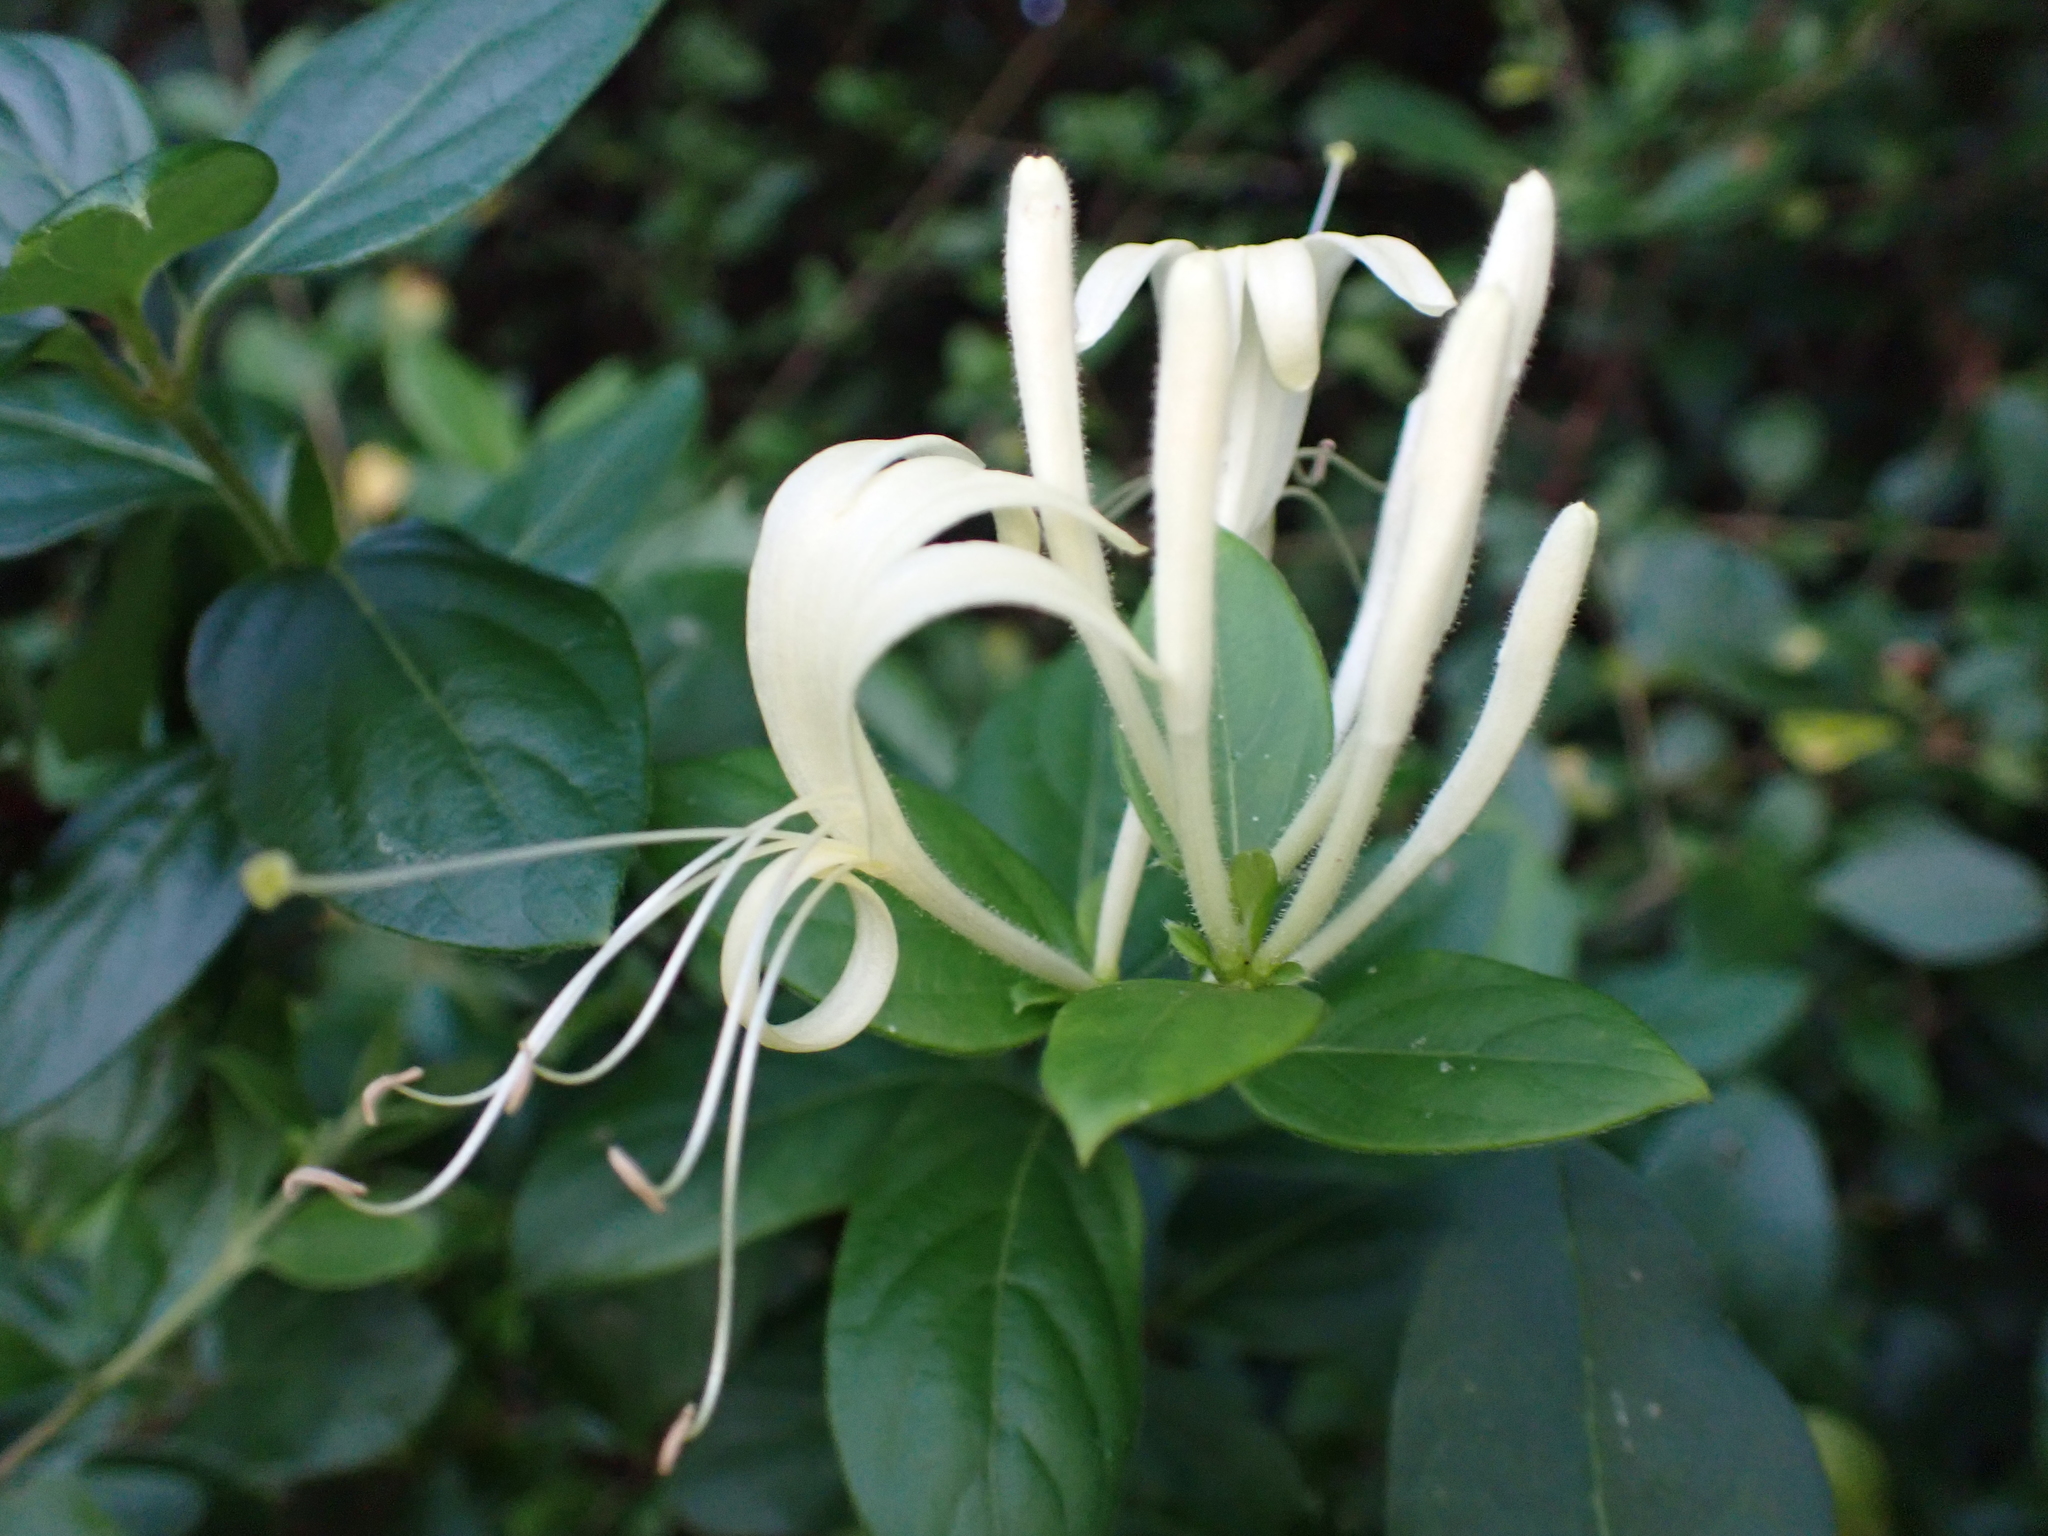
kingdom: Plantae
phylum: Tracheophyta
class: Magnoliopsida
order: Dipsacales
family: Caprifoliaceae
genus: Lonicera
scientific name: Lonicera japonica
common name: Japanese honeysuckle
